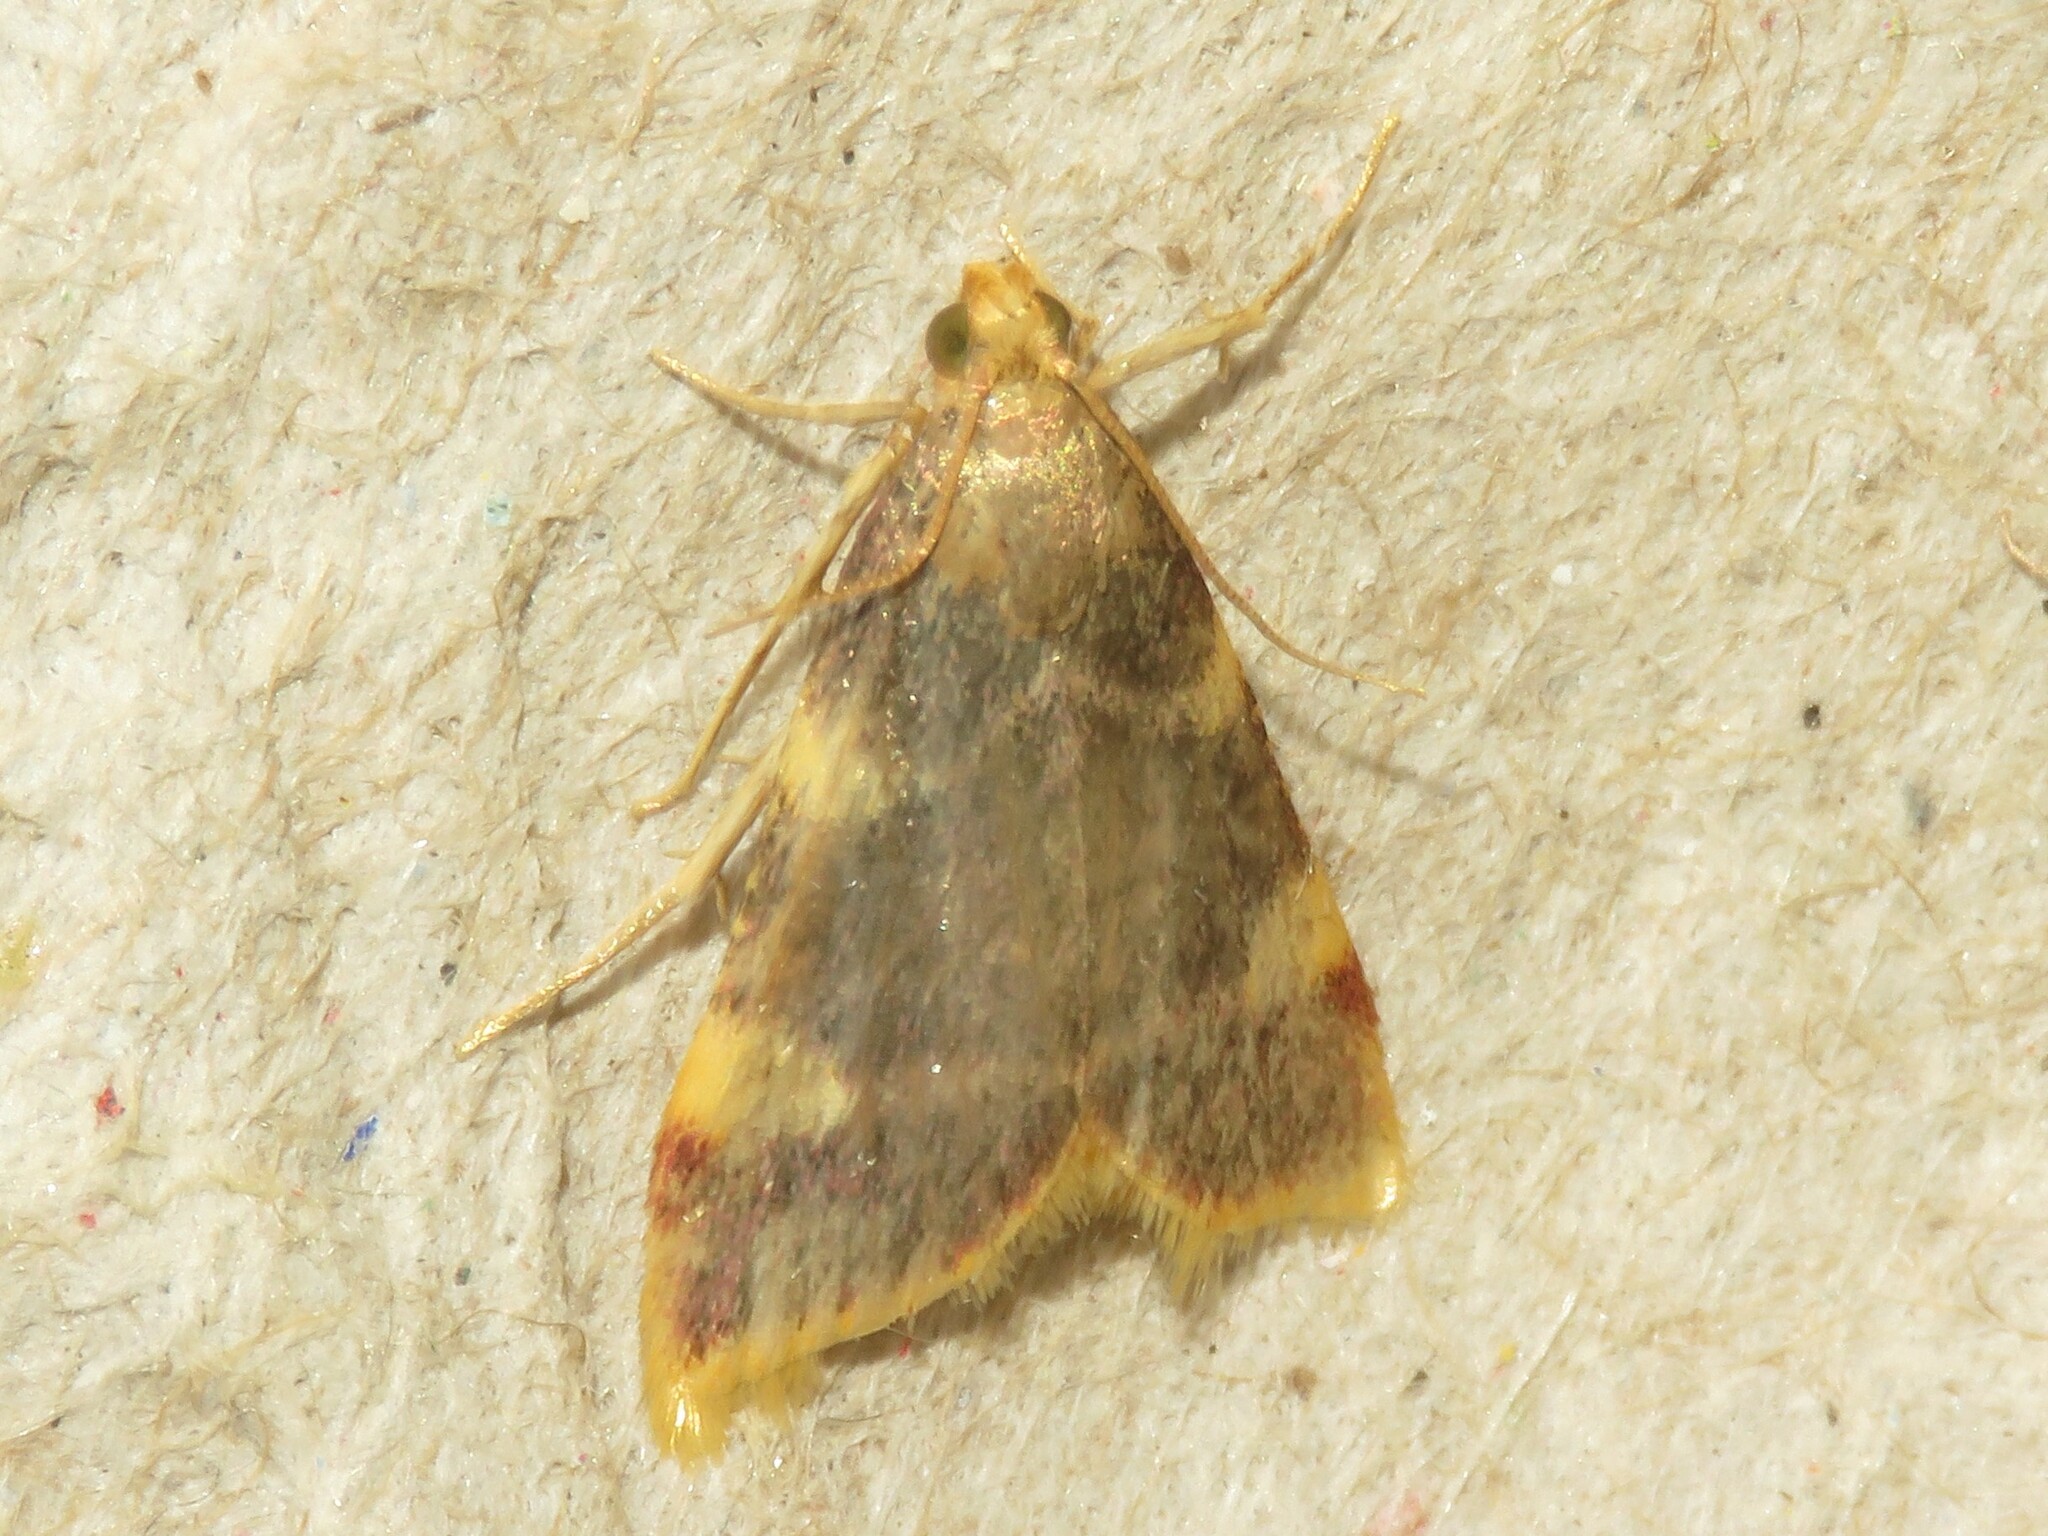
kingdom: Animalia
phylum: Arthropoda
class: Insecta
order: Lepidoptera
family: Pyralidae
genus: Hypsopygia
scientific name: Hypsopygia costalis
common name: Gold triangle
